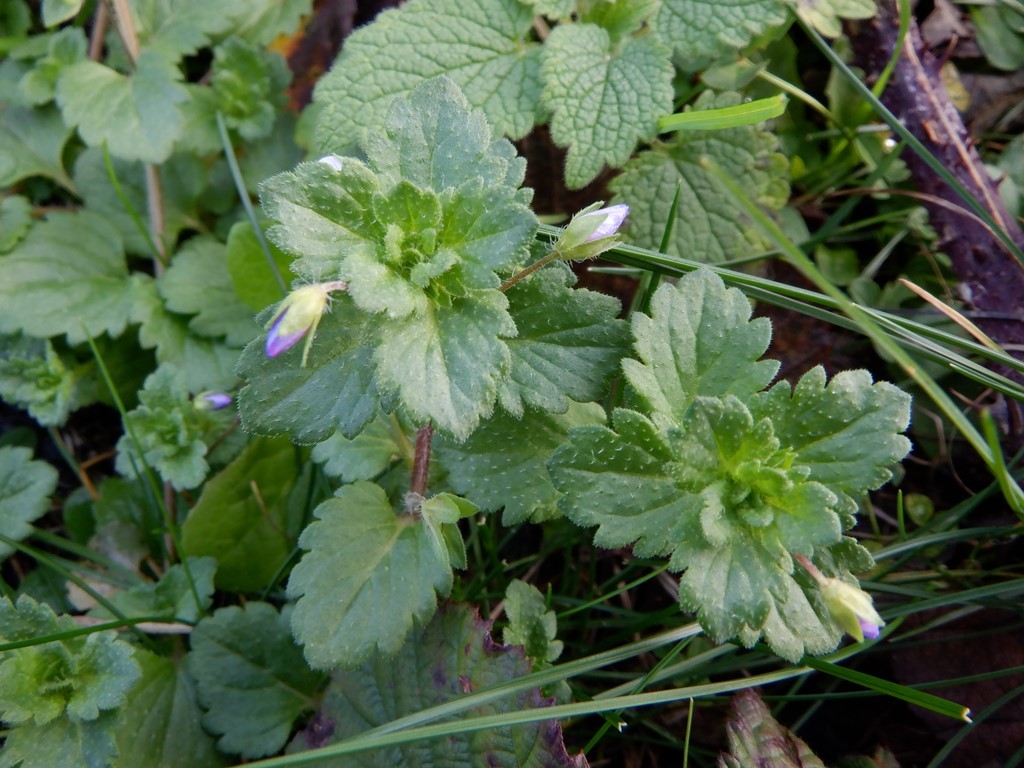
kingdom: Plantae
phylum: Tracheophyta
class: Magnoliopsida
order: Lamiales
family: Plantaginaceae
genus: Veronica
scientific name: Veronica persica
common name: Common field-speedwell
